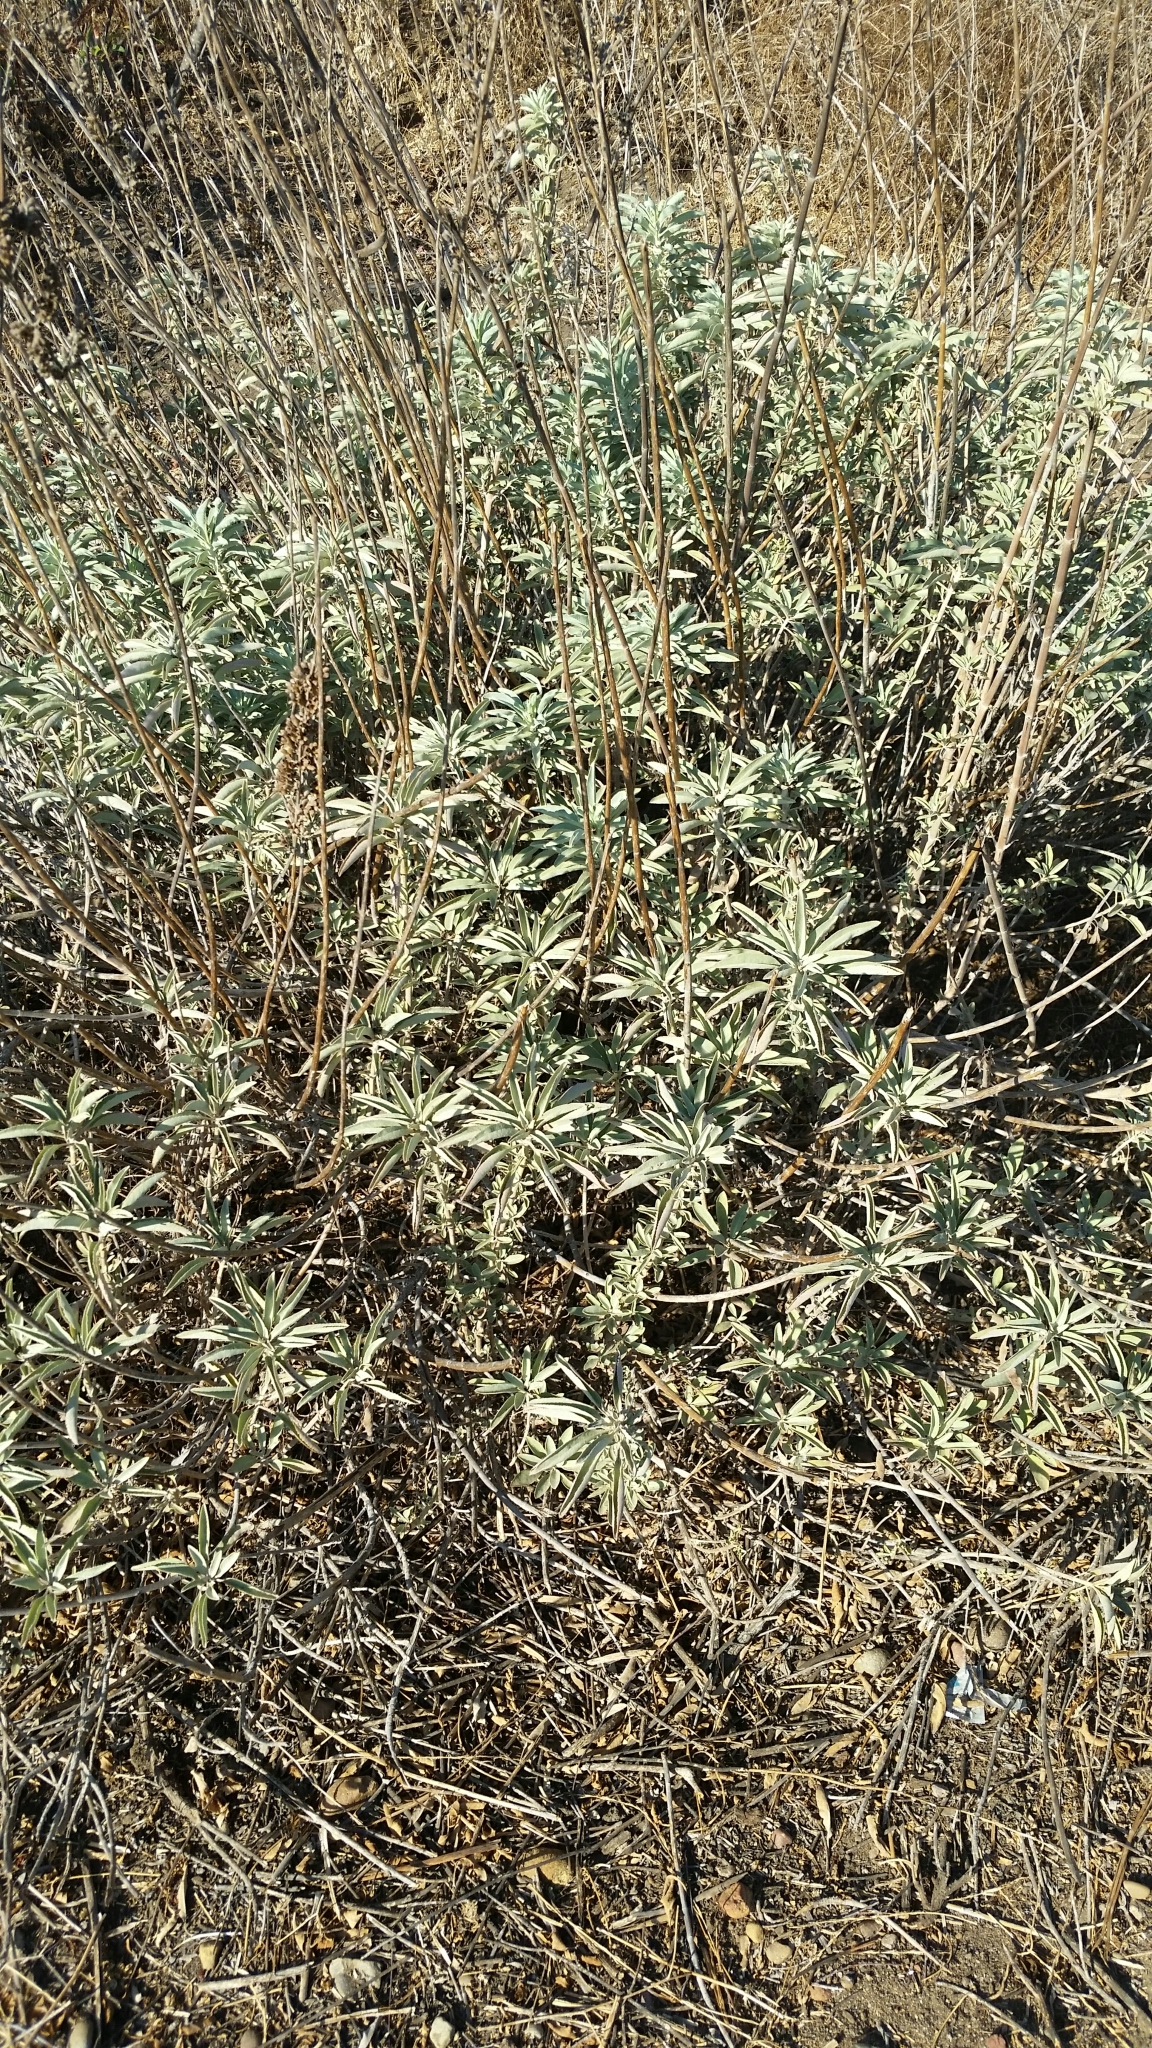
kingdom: Plantae
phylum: Tracheophyta
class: Magnoliopsida
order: Lamiales
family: Lamiaceae
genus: Salvia
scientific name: Salvia apiana
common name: White sage
